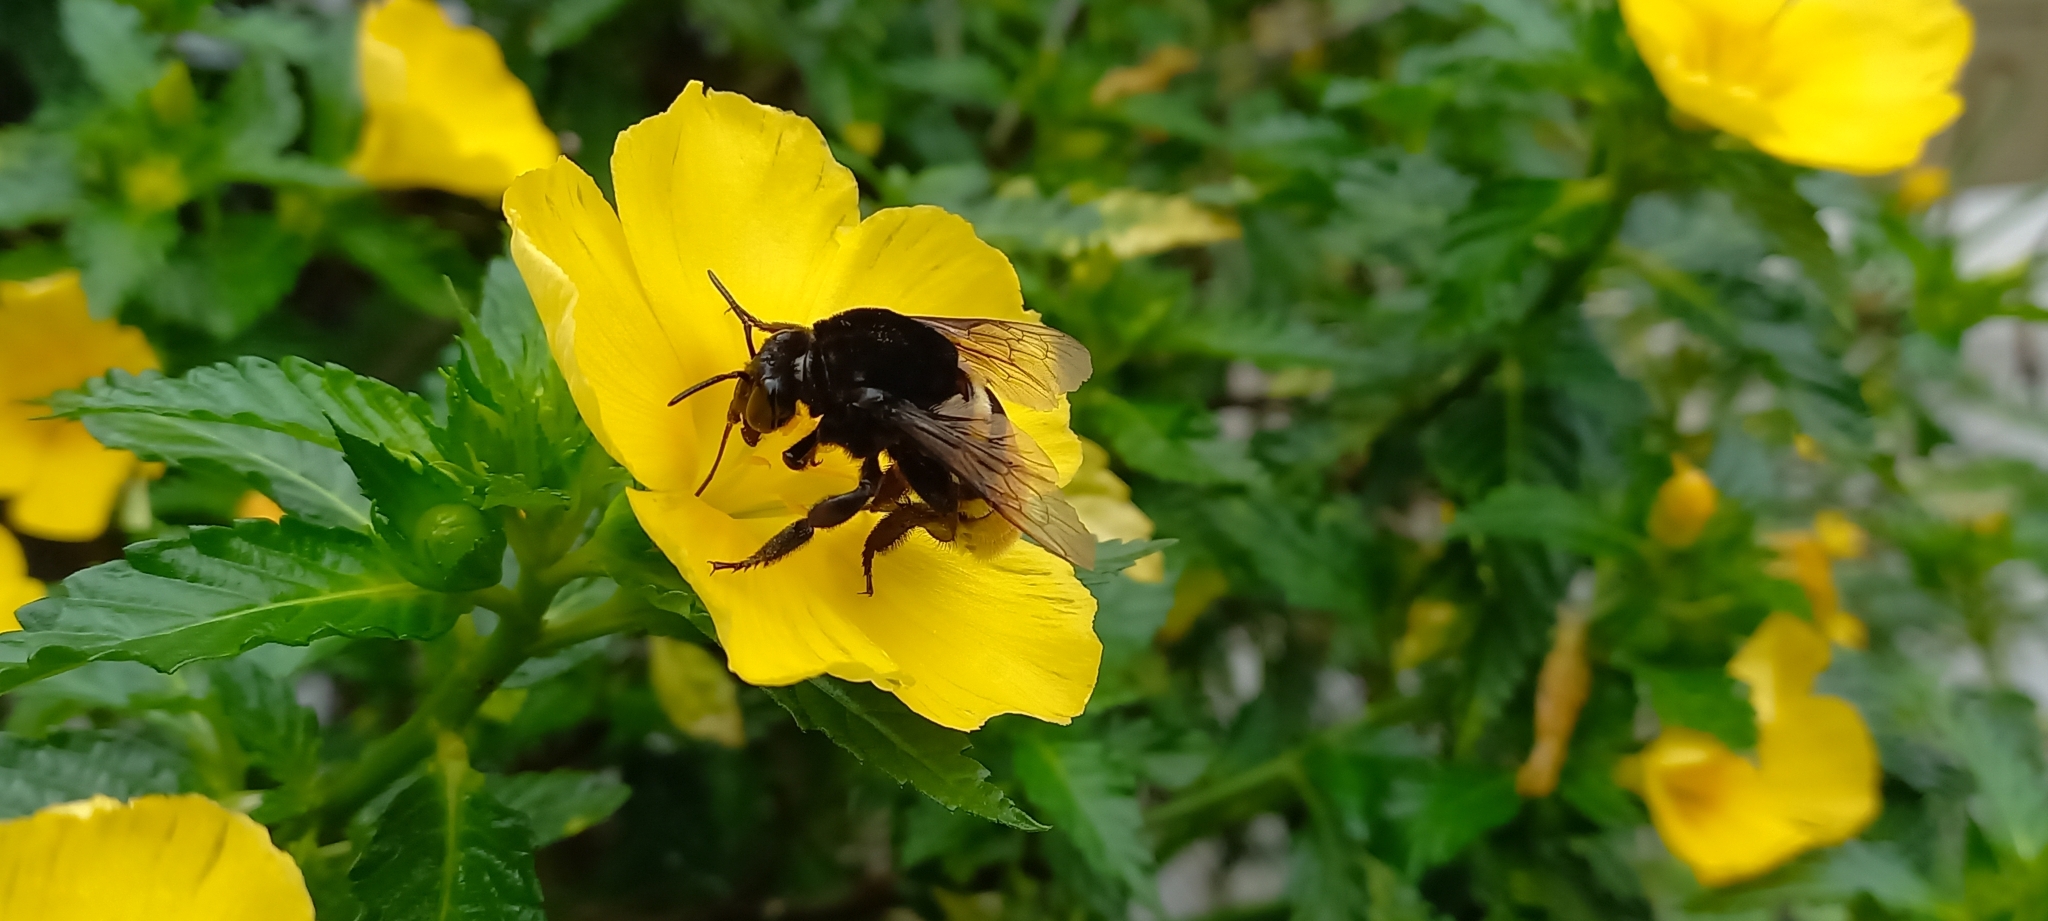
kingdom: Animalia
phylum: Arthropoda
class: Insecta
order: Hymenoptera
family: Apidae
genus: Eulaema
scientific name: Eulaema cingulata
